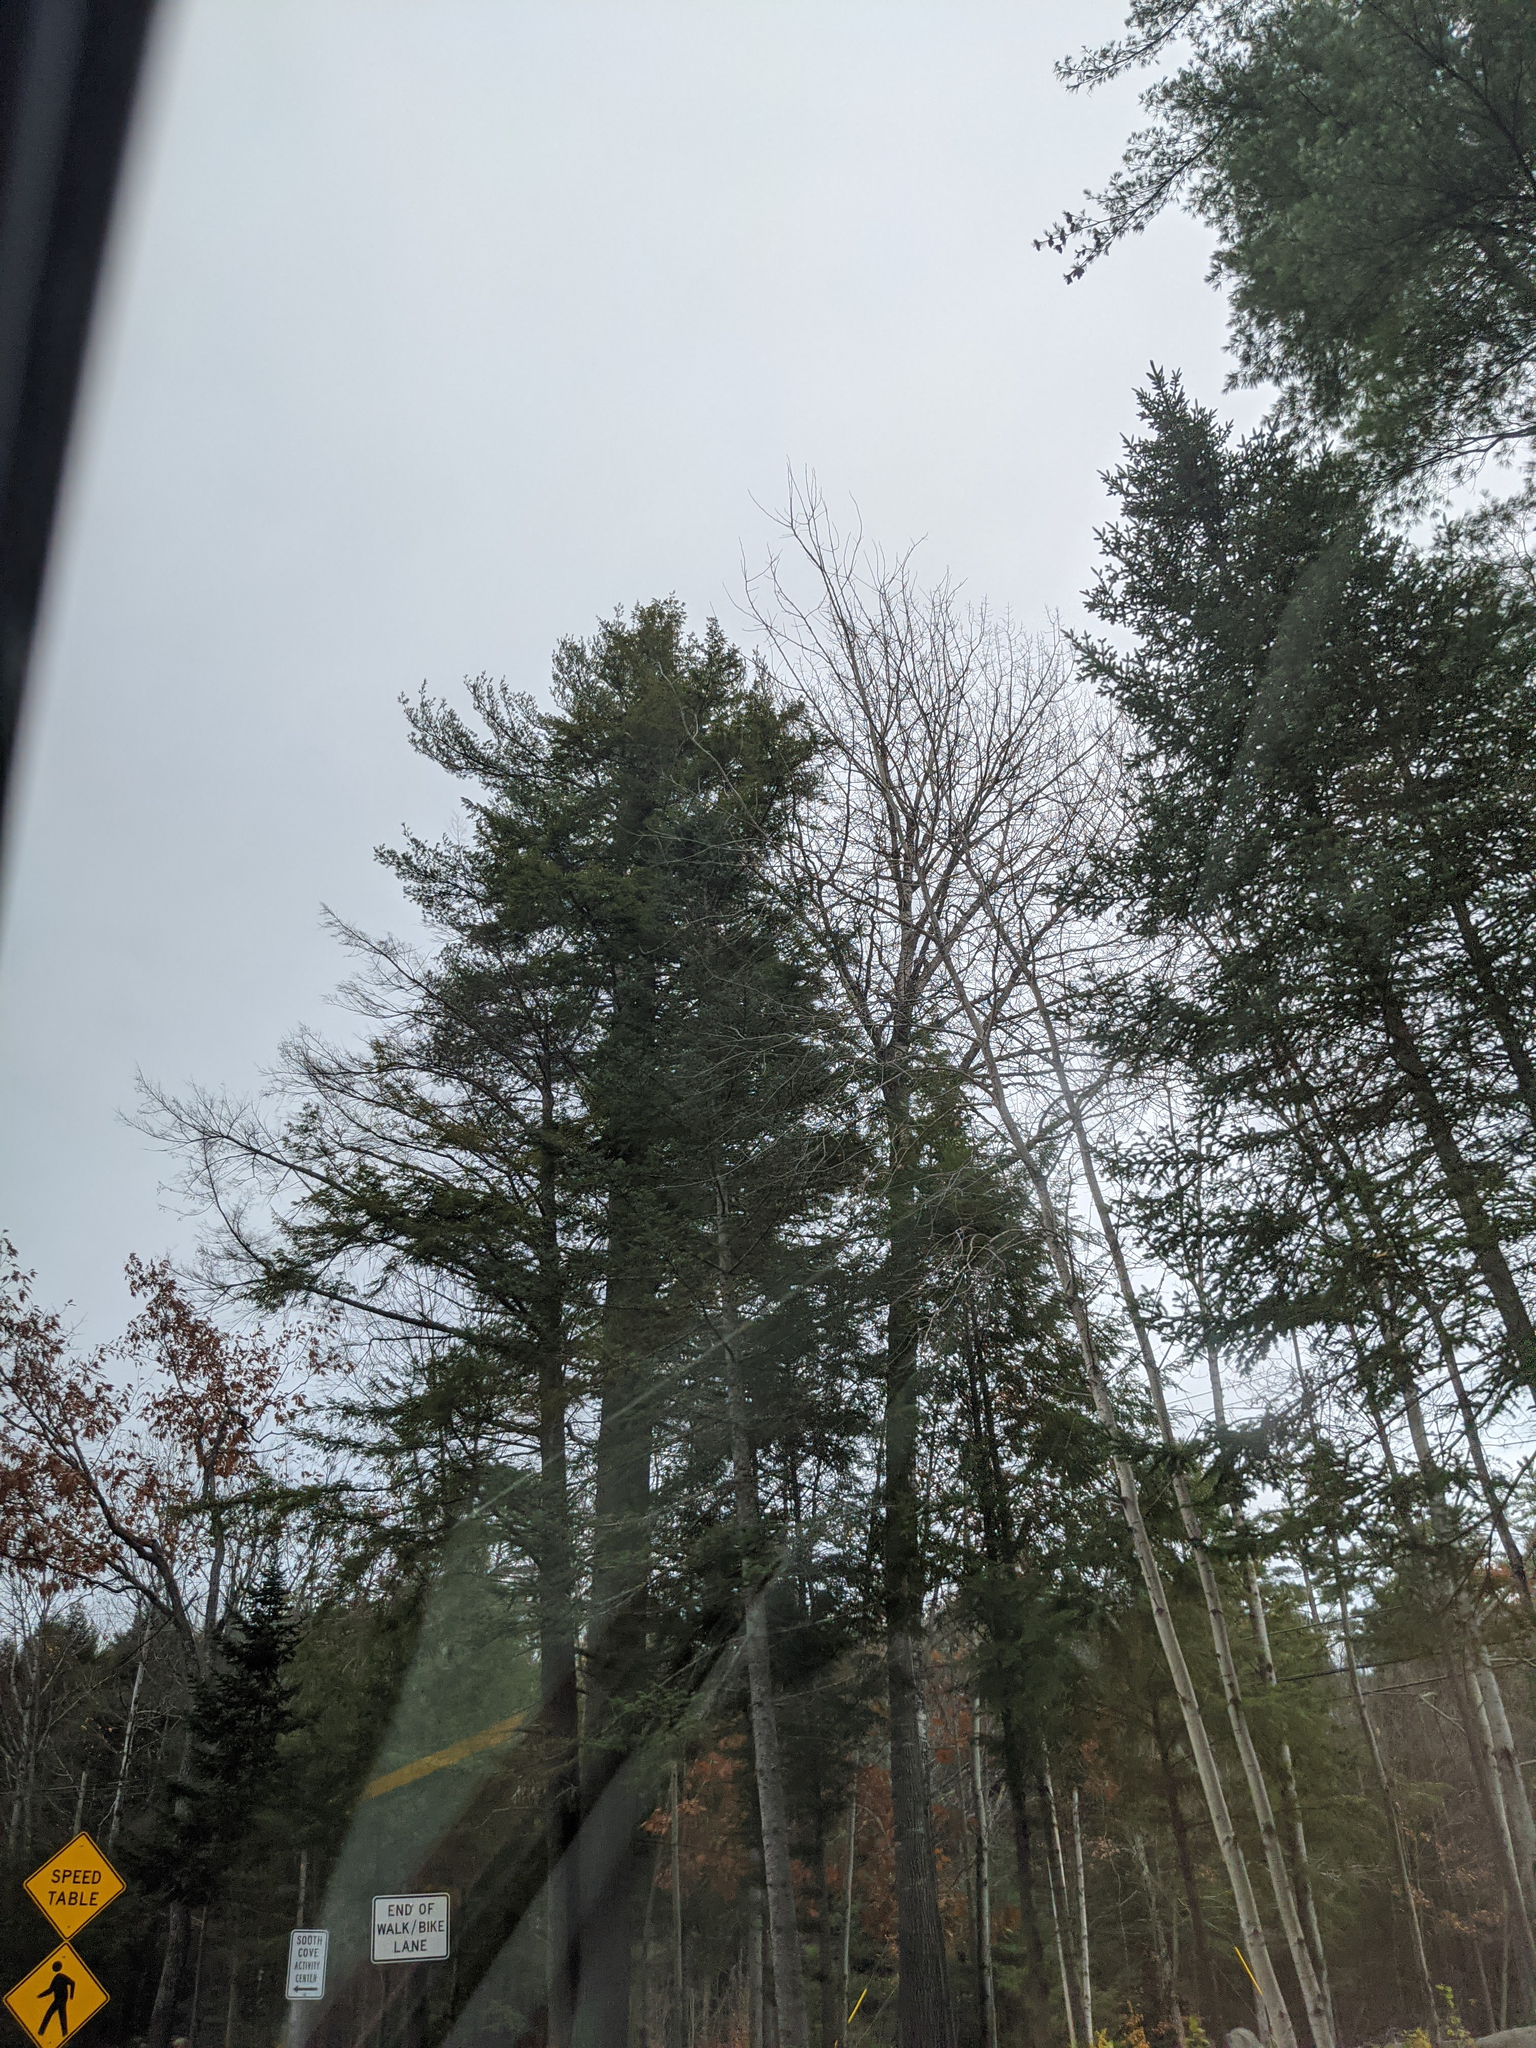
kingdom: Plantae
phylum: Tracheophyta
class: Pinopsida
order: Pinales
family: Pinaceae
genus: Pinus
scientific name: Pinus strobus
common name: Weymouth pine
